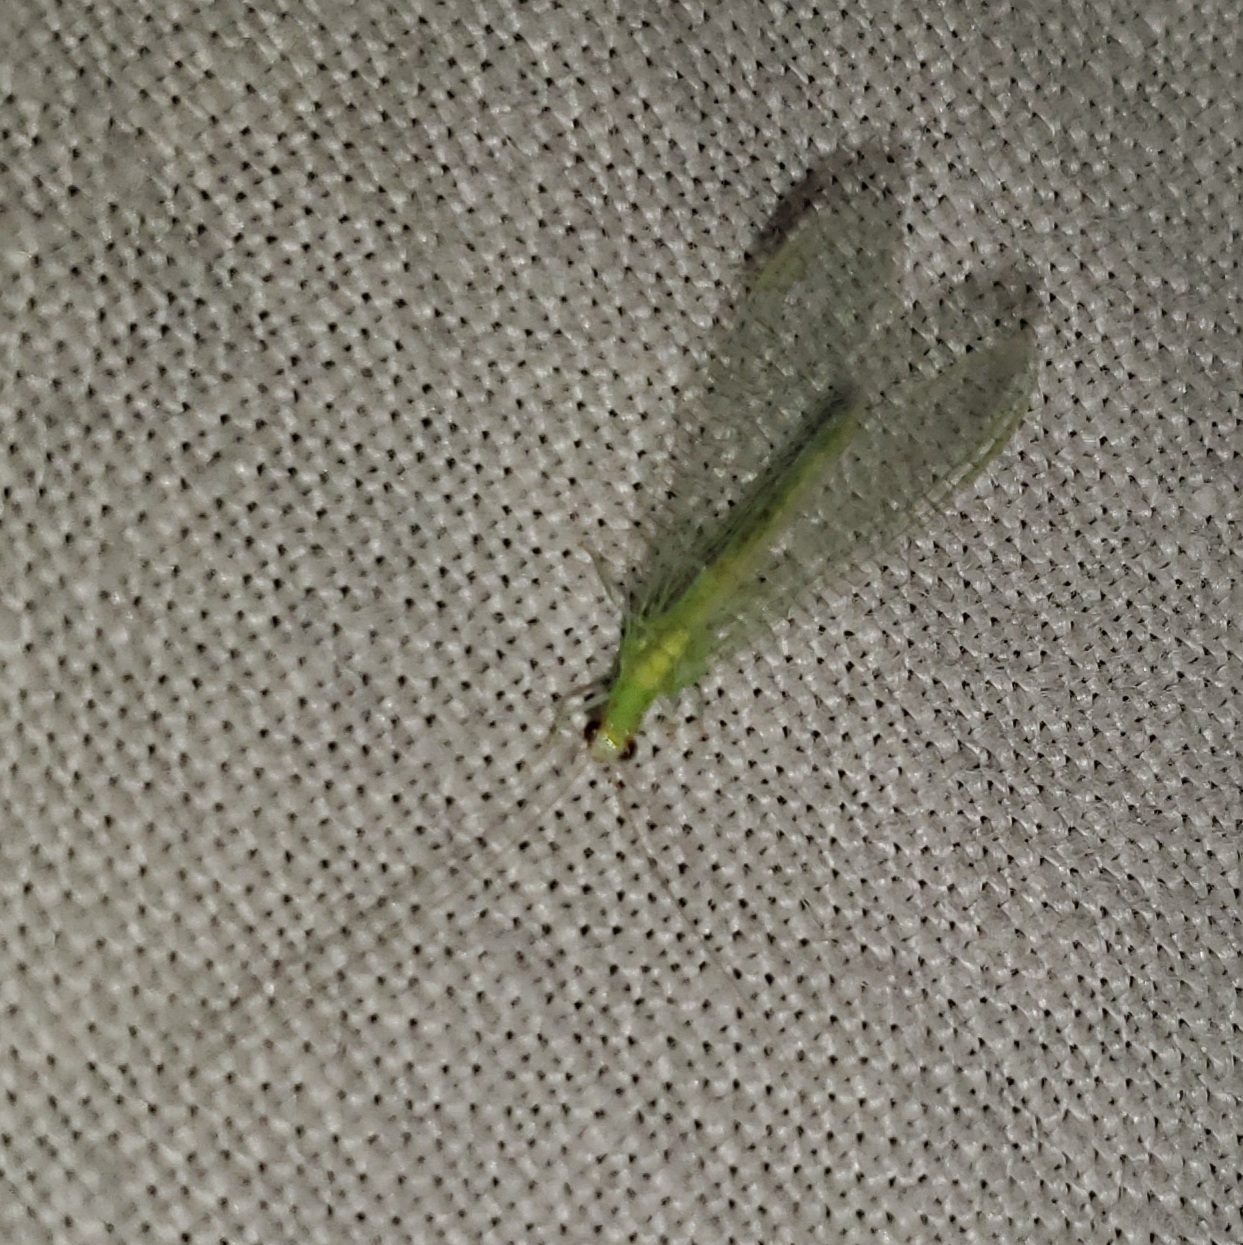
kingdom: Animalia
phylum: Arthropoda
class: Insecta
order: Neuroptera
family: Chrysopidae
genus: Chrysopa
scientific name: Chrysopa quadripunctata
